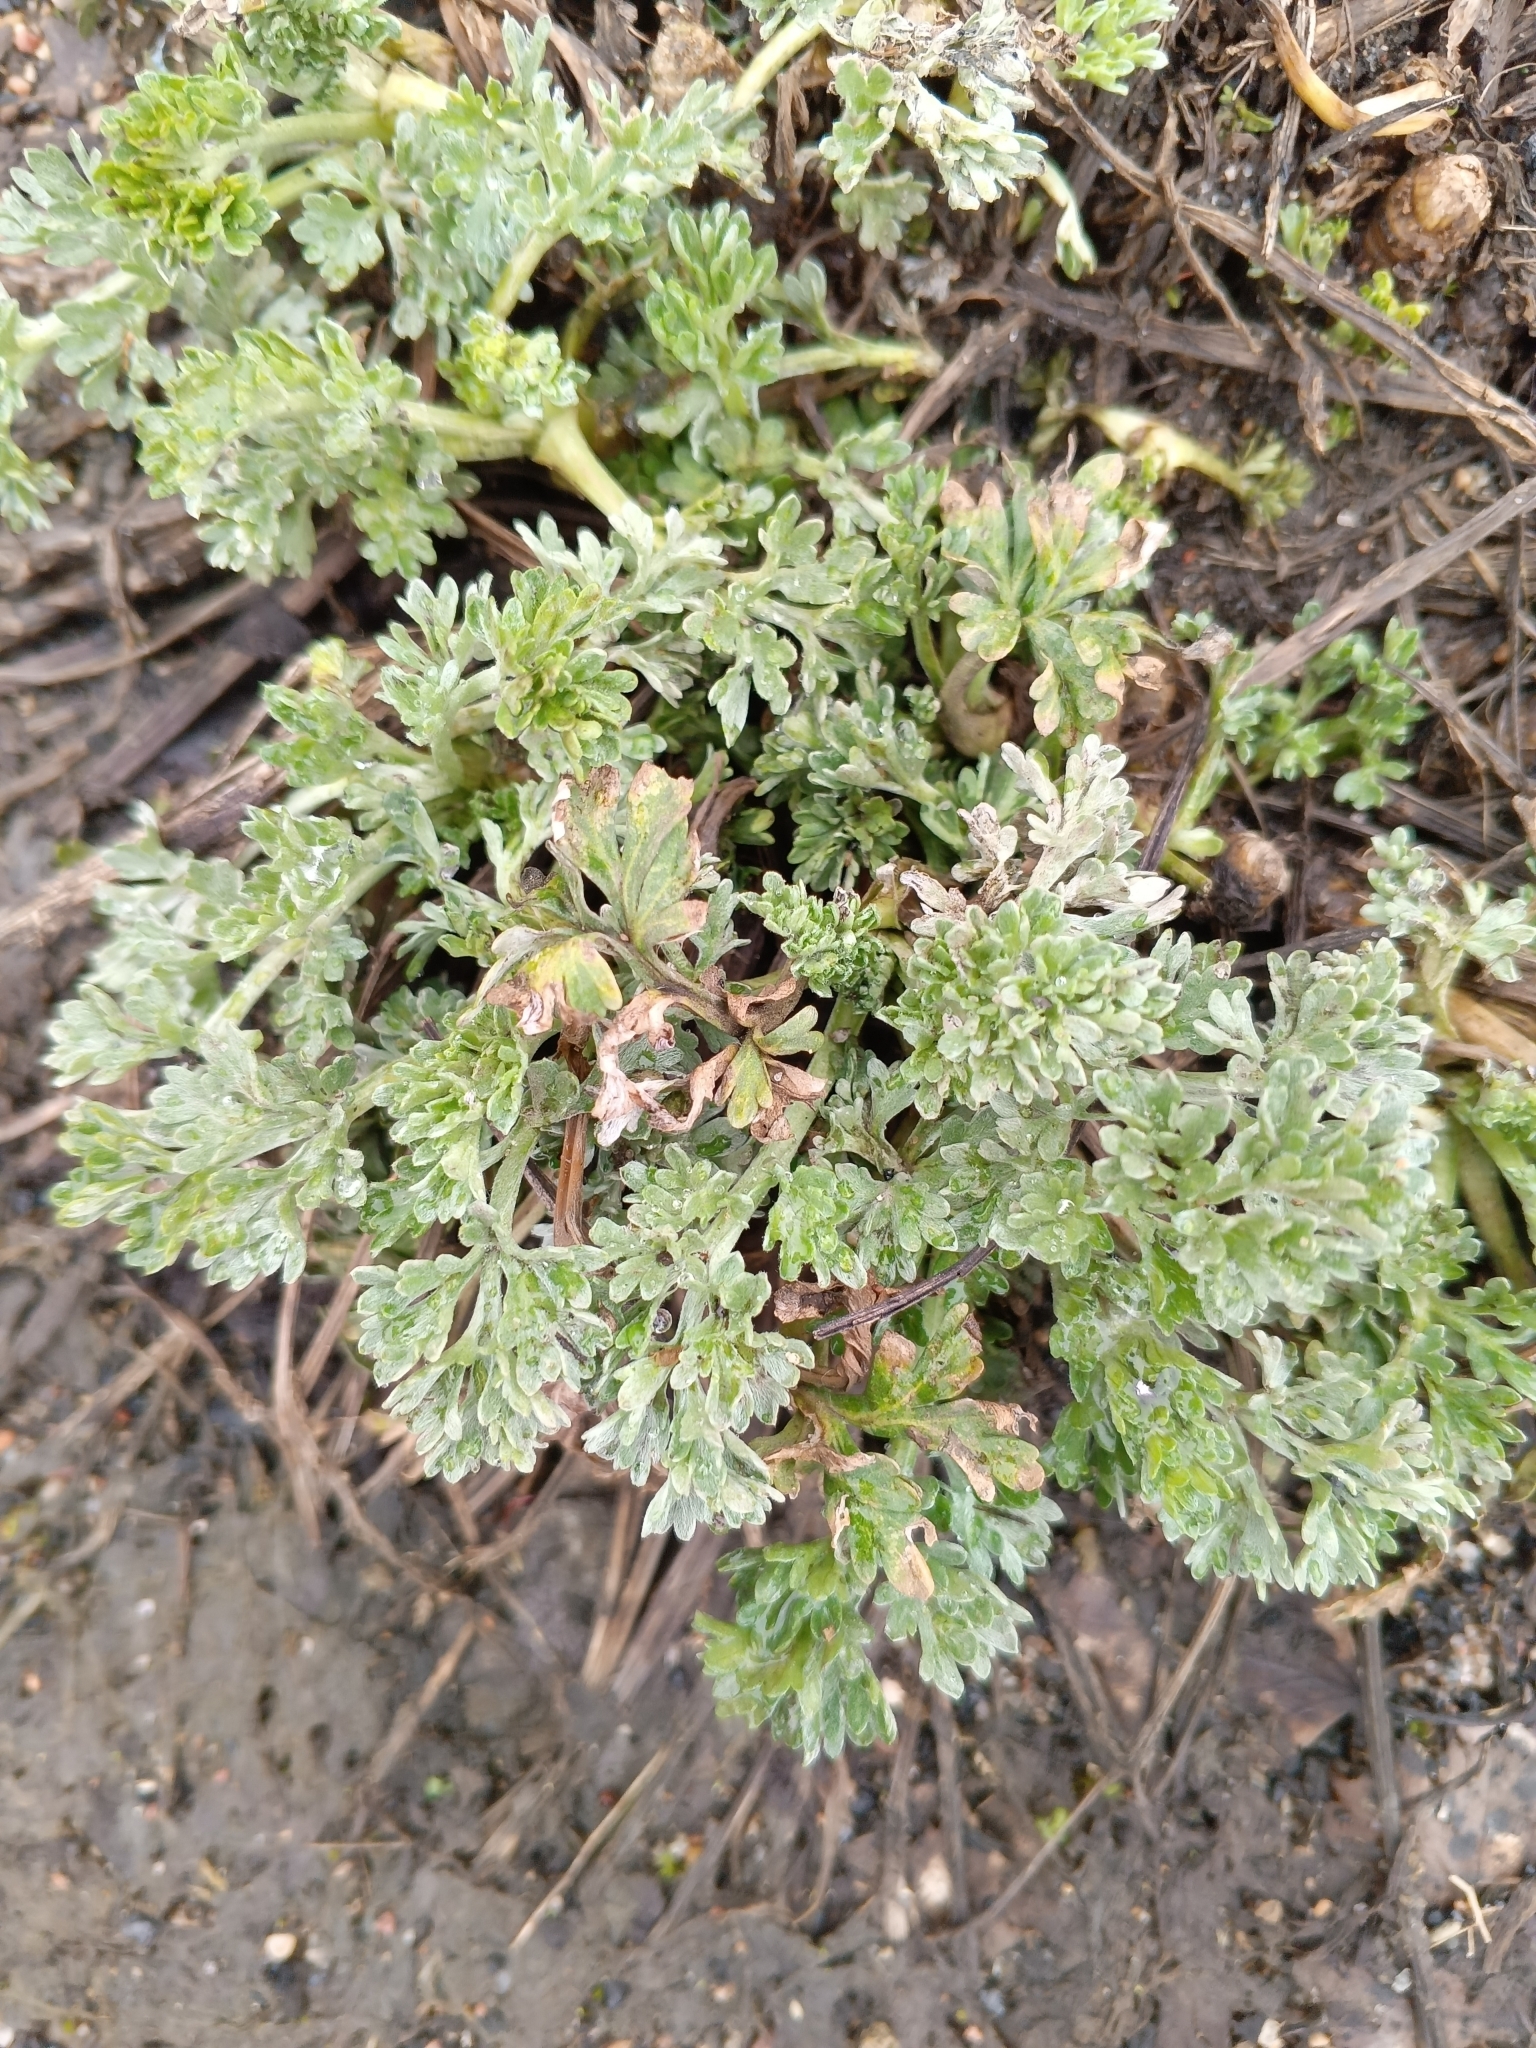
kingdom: Plantae
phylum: Tracheophyta
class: Magnoliopsida
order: Asterales
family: Asteraceae
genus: Artemisia
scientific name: Artemisia absinthium
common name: Wormwood
